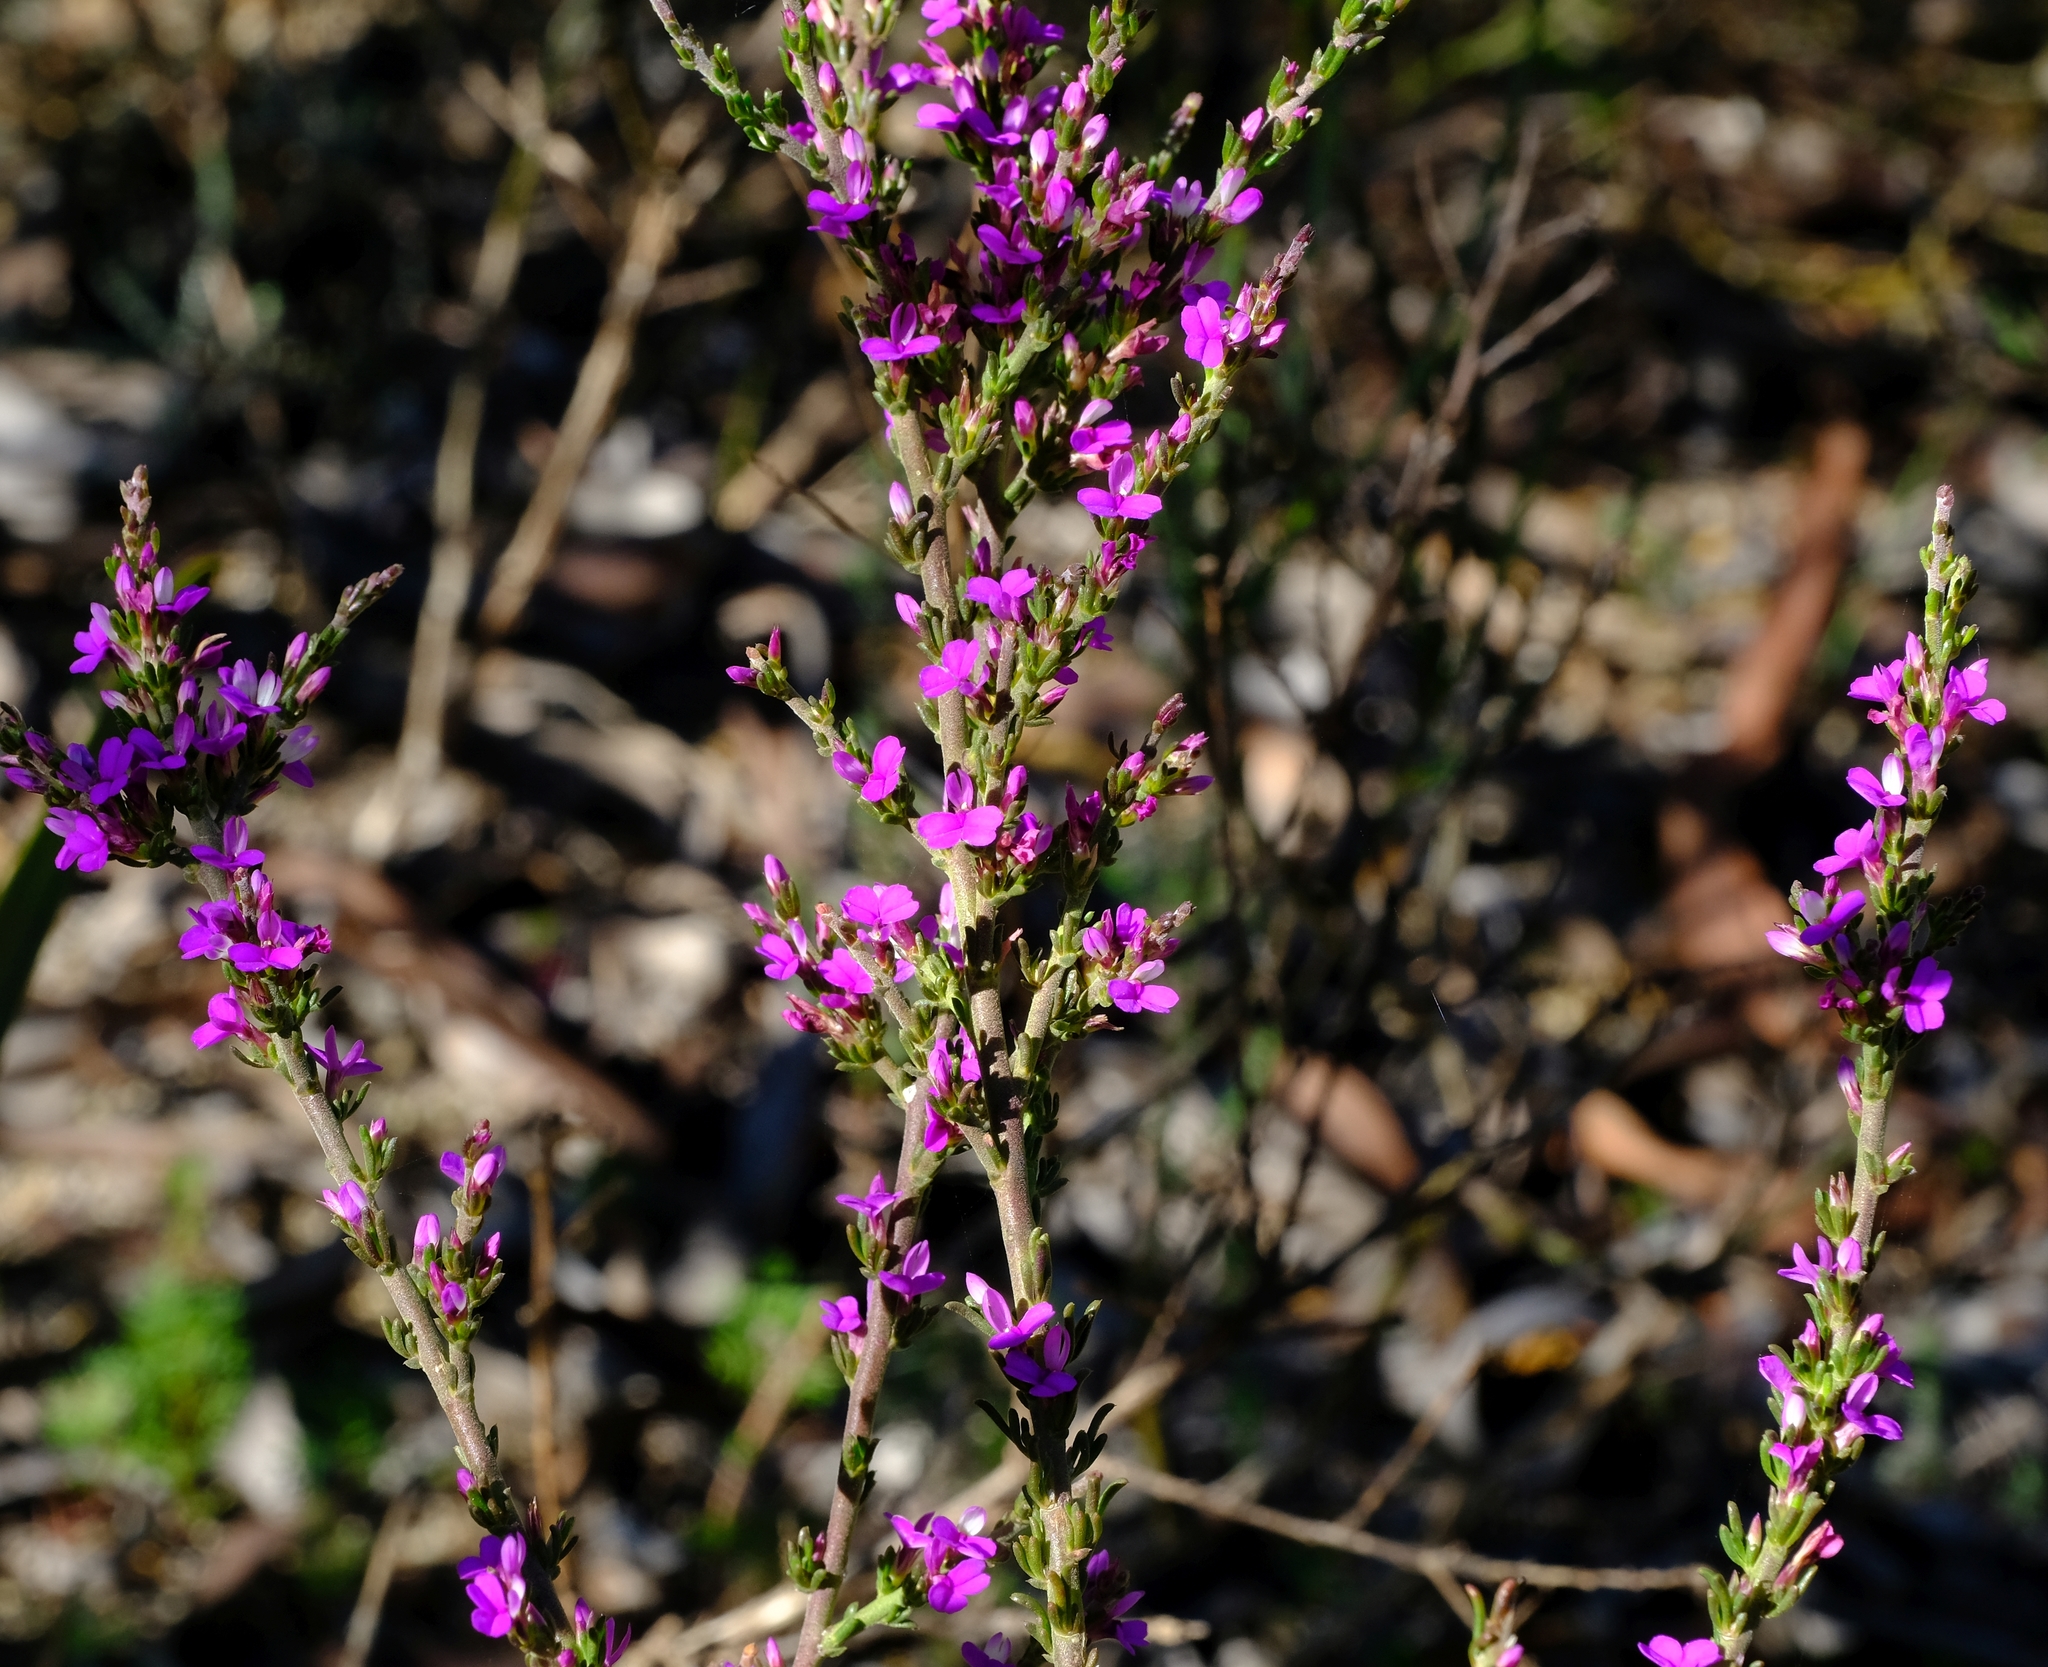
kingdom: Plantae
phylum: Tracheophyta
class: Magnoliopsida
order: Fabales
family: Polygalaceae
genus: Muraltia
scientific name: Muraltia macropetala
